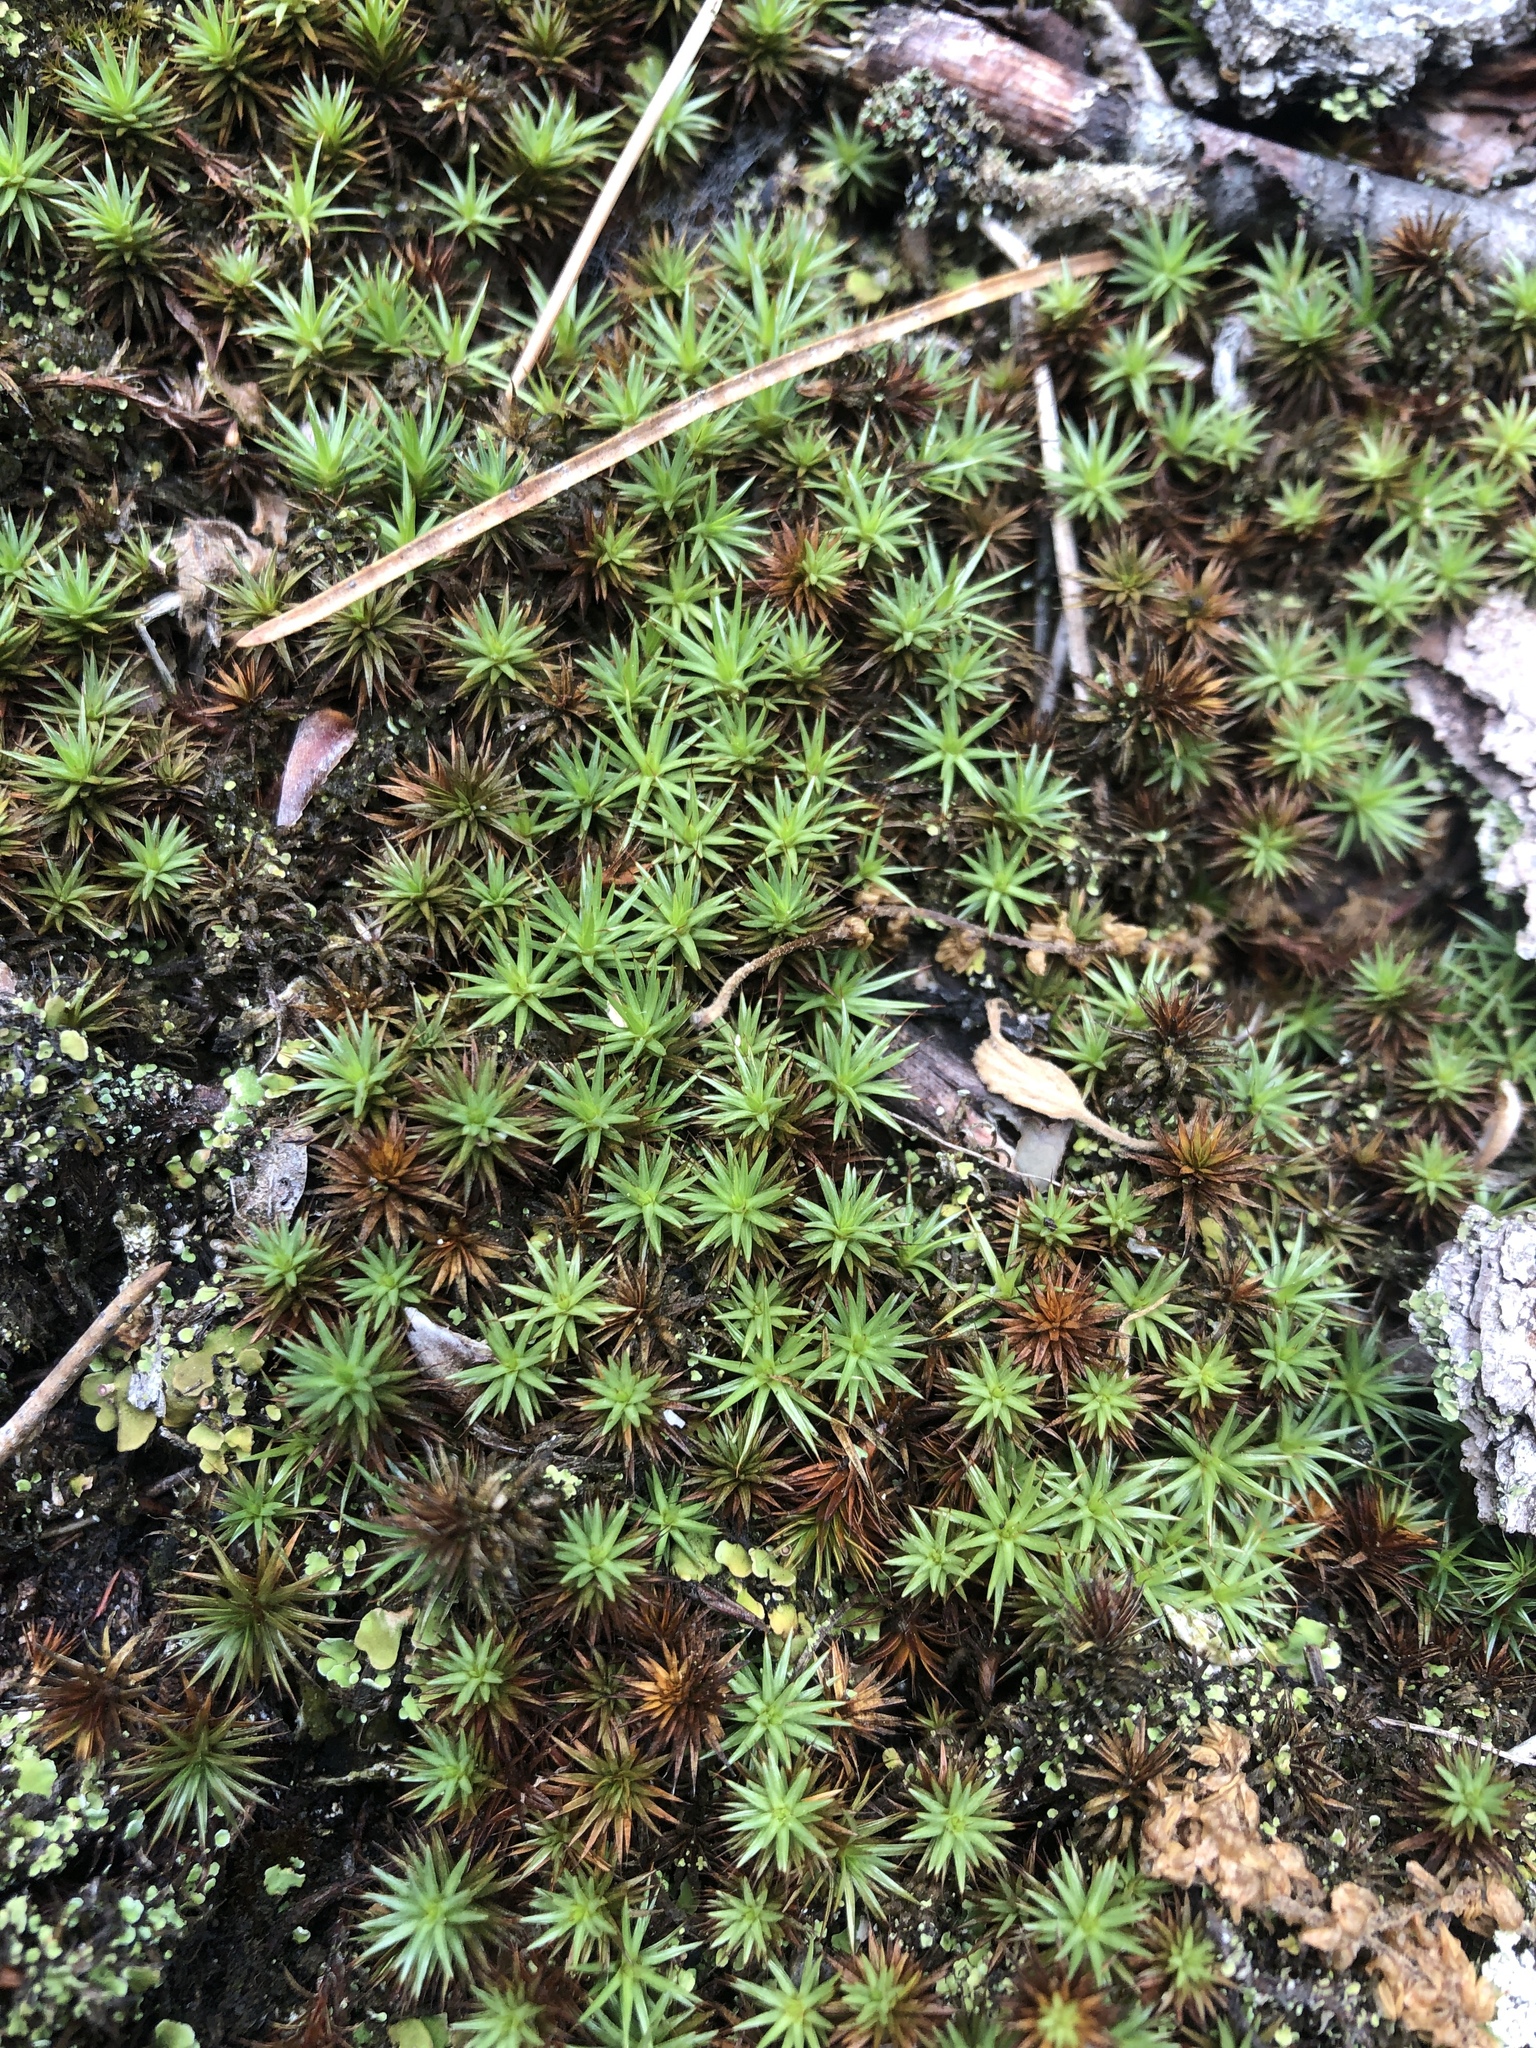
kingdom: Plantae
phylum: Bryophyta
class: Polytrichopsida
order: Polytrichales
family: Polytrichaceae
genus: Polytrichum
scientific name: Polytrichum juniperinum
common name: Juniper haircap moss
